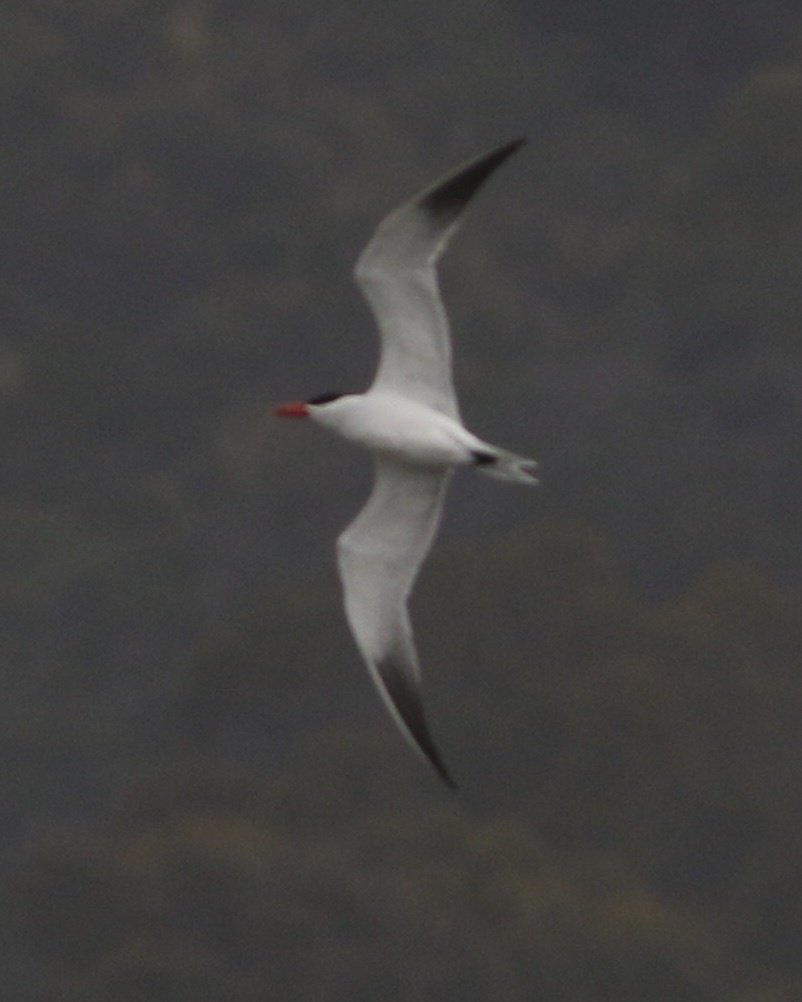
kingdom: Animalia
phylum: Chordata
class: Aves
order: Charadriiformes
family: Laridae
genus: Hydroprogne
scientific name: Hydroprogne caspia
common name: Caspian tern
